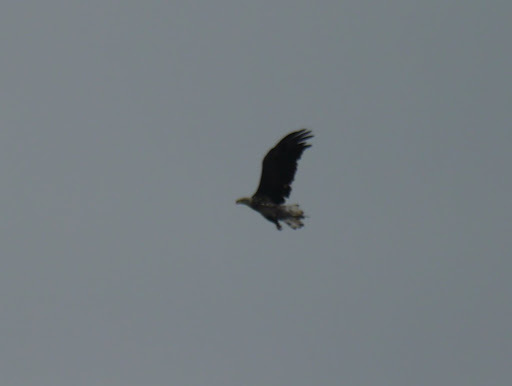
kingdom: Animalia
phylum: Chordata
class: Aves
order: Accipitriformes
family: Accipitridae
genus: Haliaeetus
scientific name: Haliaeetus leucocephalus
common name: Bald eagle
